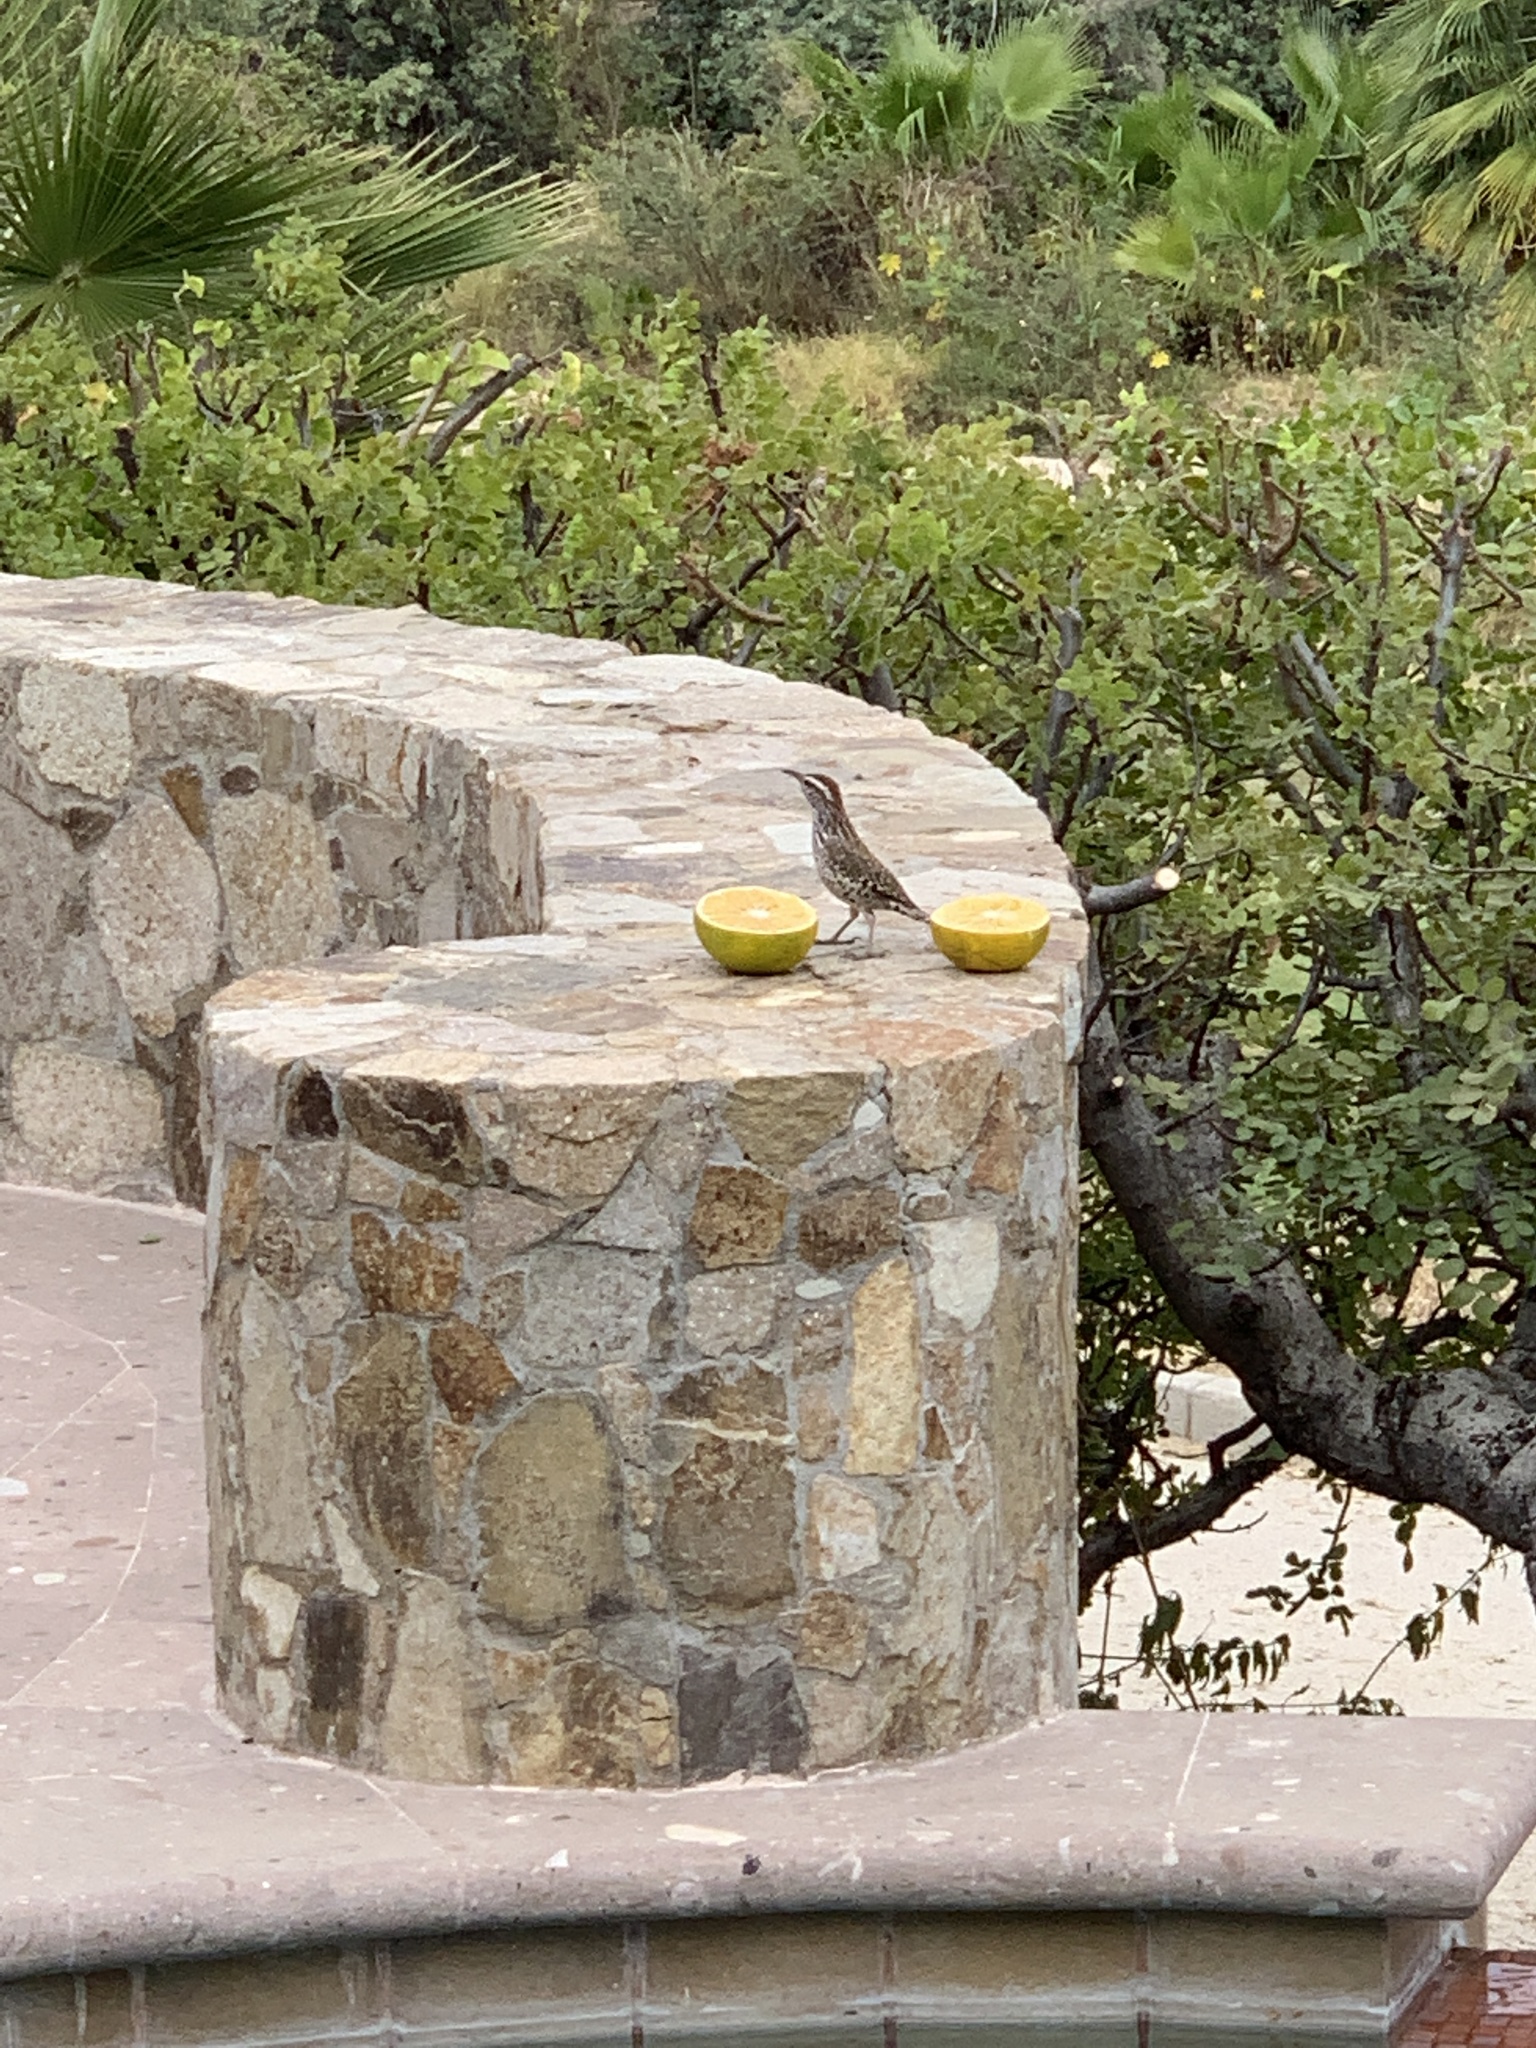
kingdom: Animalia
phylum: Chordata
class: Aves
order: Passeriformes
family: Troglodytidae
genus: Campylorhynchus
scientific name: Campylorhynchus brunneicapillus
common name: Cactus wren
